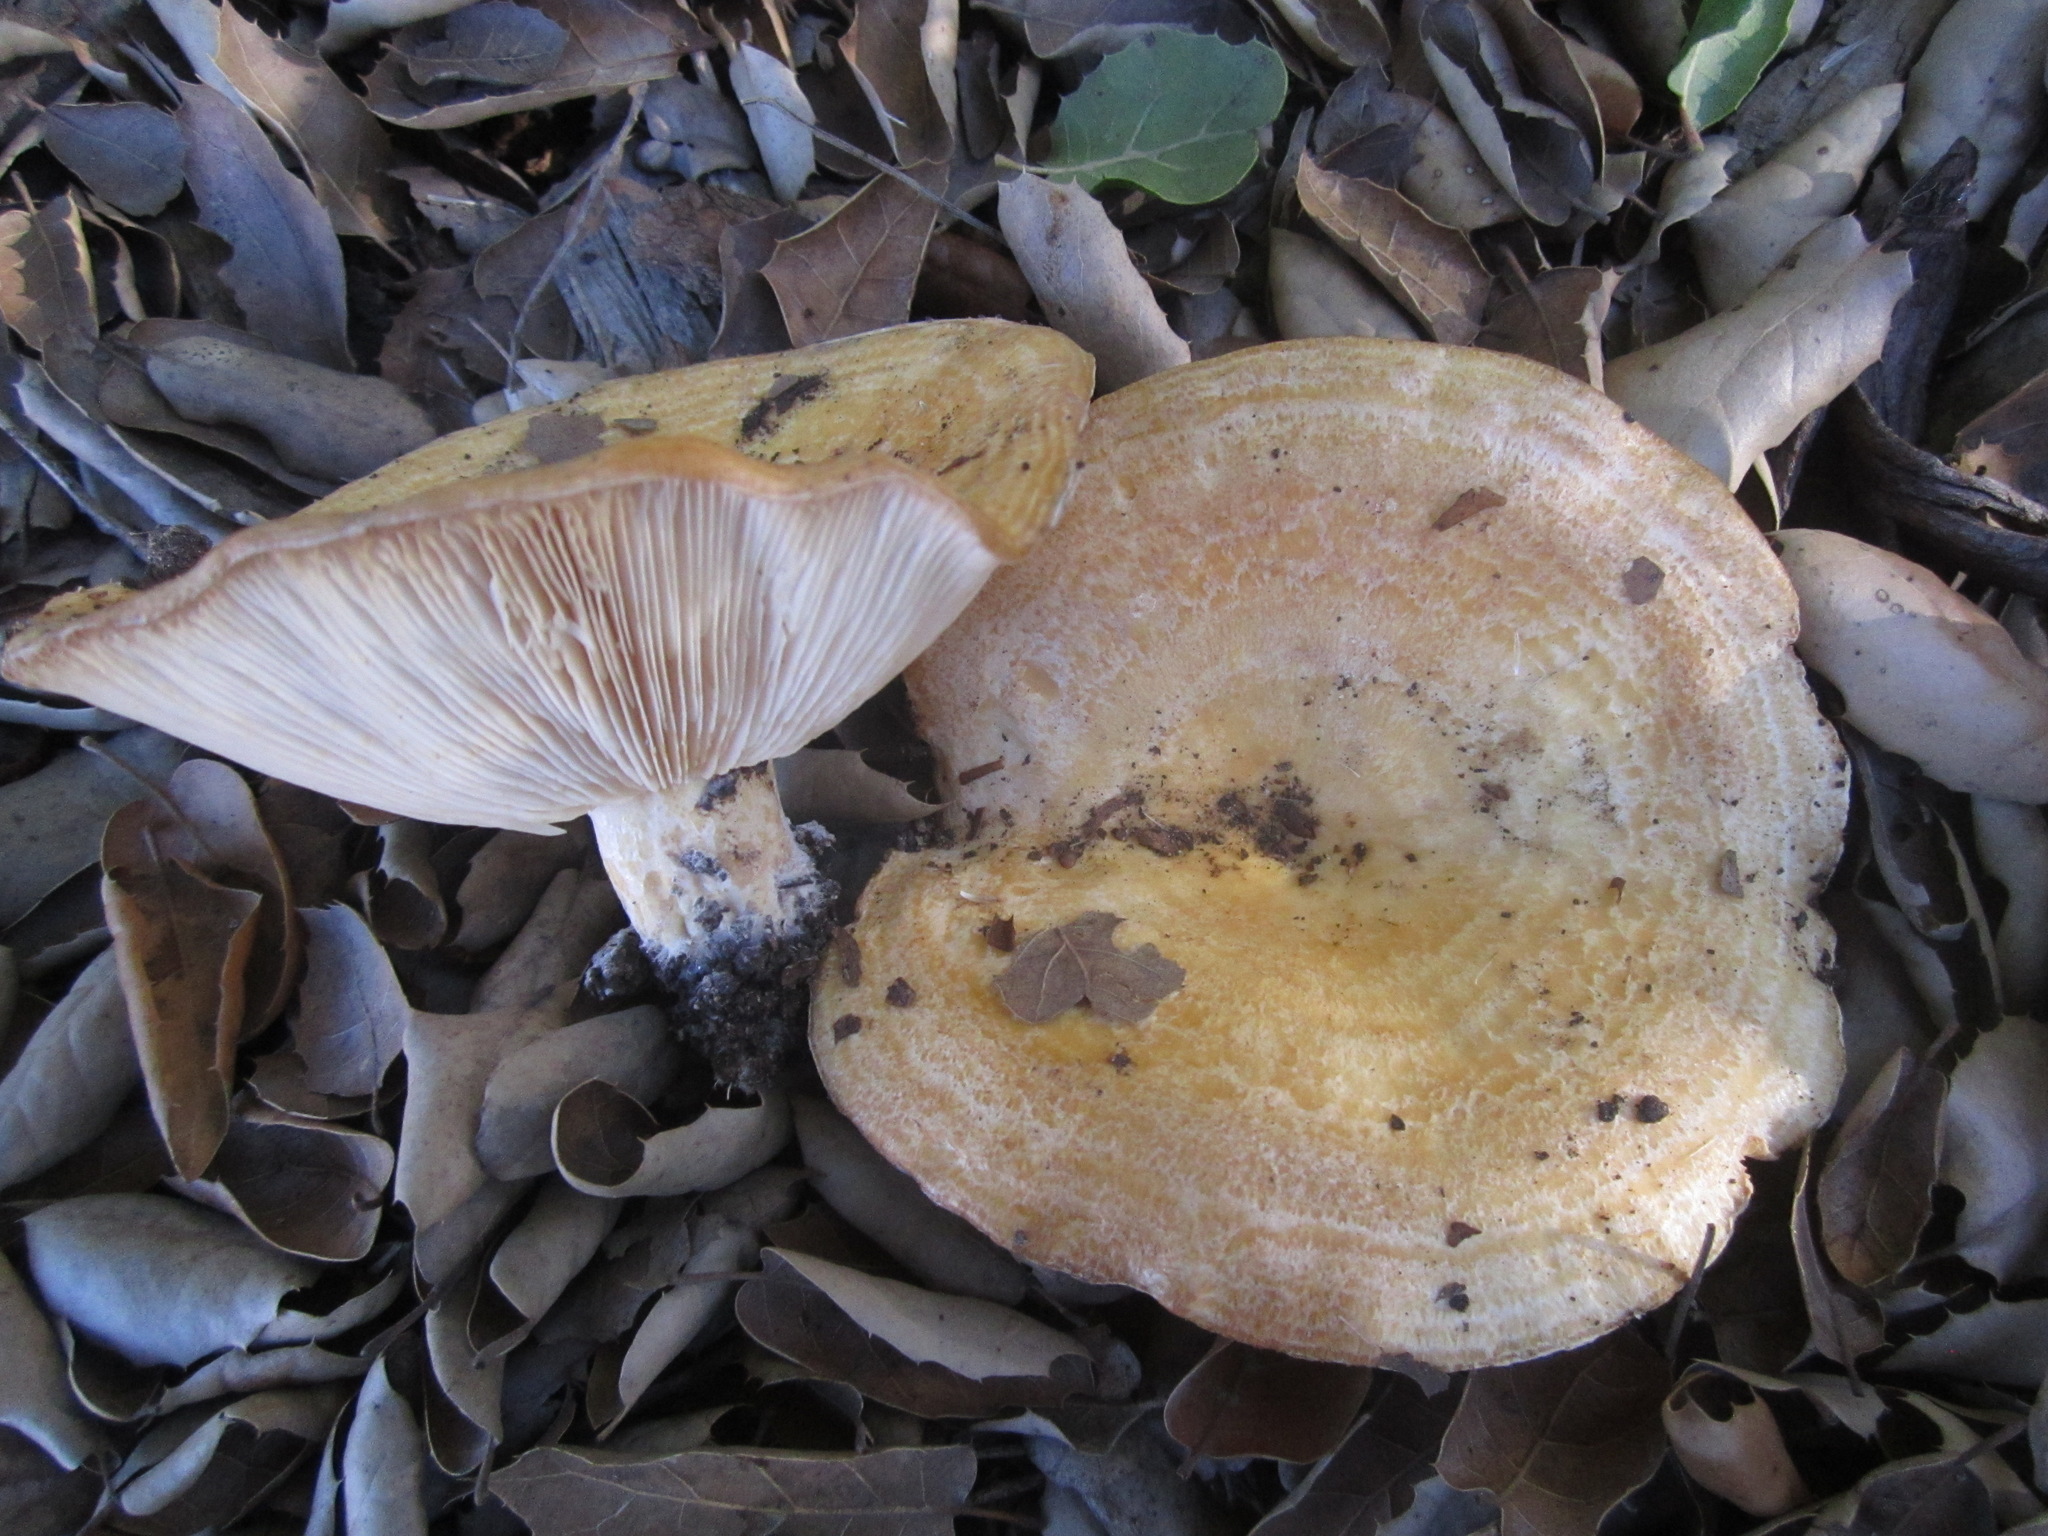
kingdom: Fungi
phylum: Basidiomycota
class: Agaricomycetes
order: Russulales
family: Russulaceae
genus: Lactarius
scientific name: Lactarius alnicola
